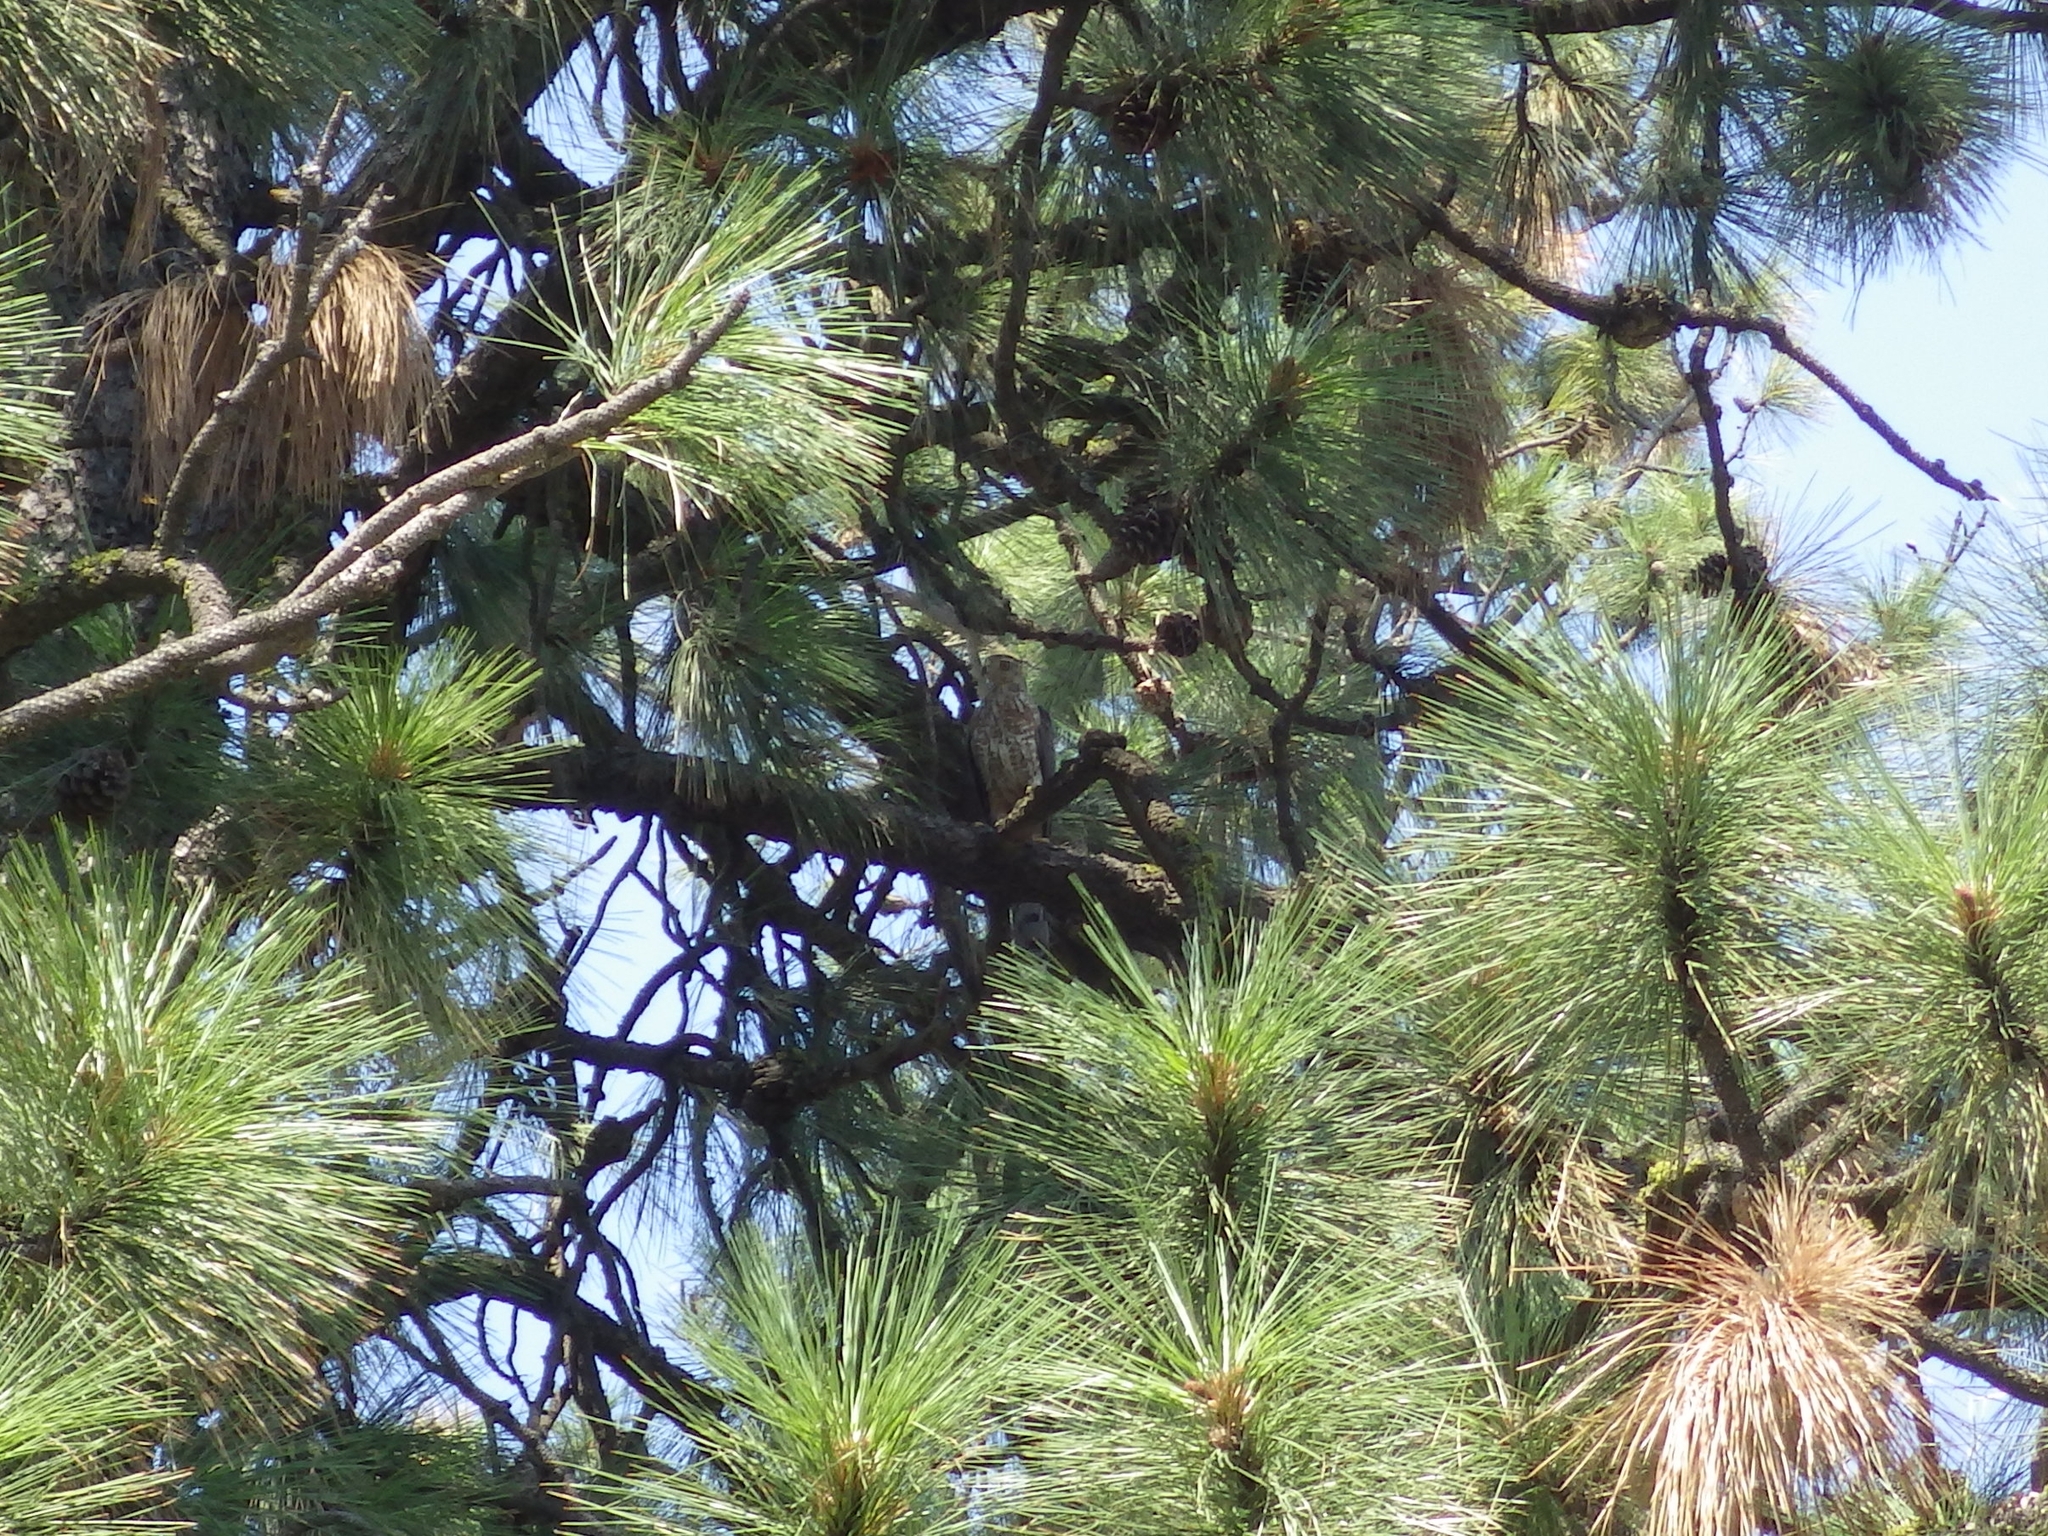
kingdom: Animalia
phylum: Chordata
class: Aves
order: Accipitriformes
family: Accipitridae
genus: Accipiter
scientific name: Accipiter cooperii
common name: Cooper's hawk
